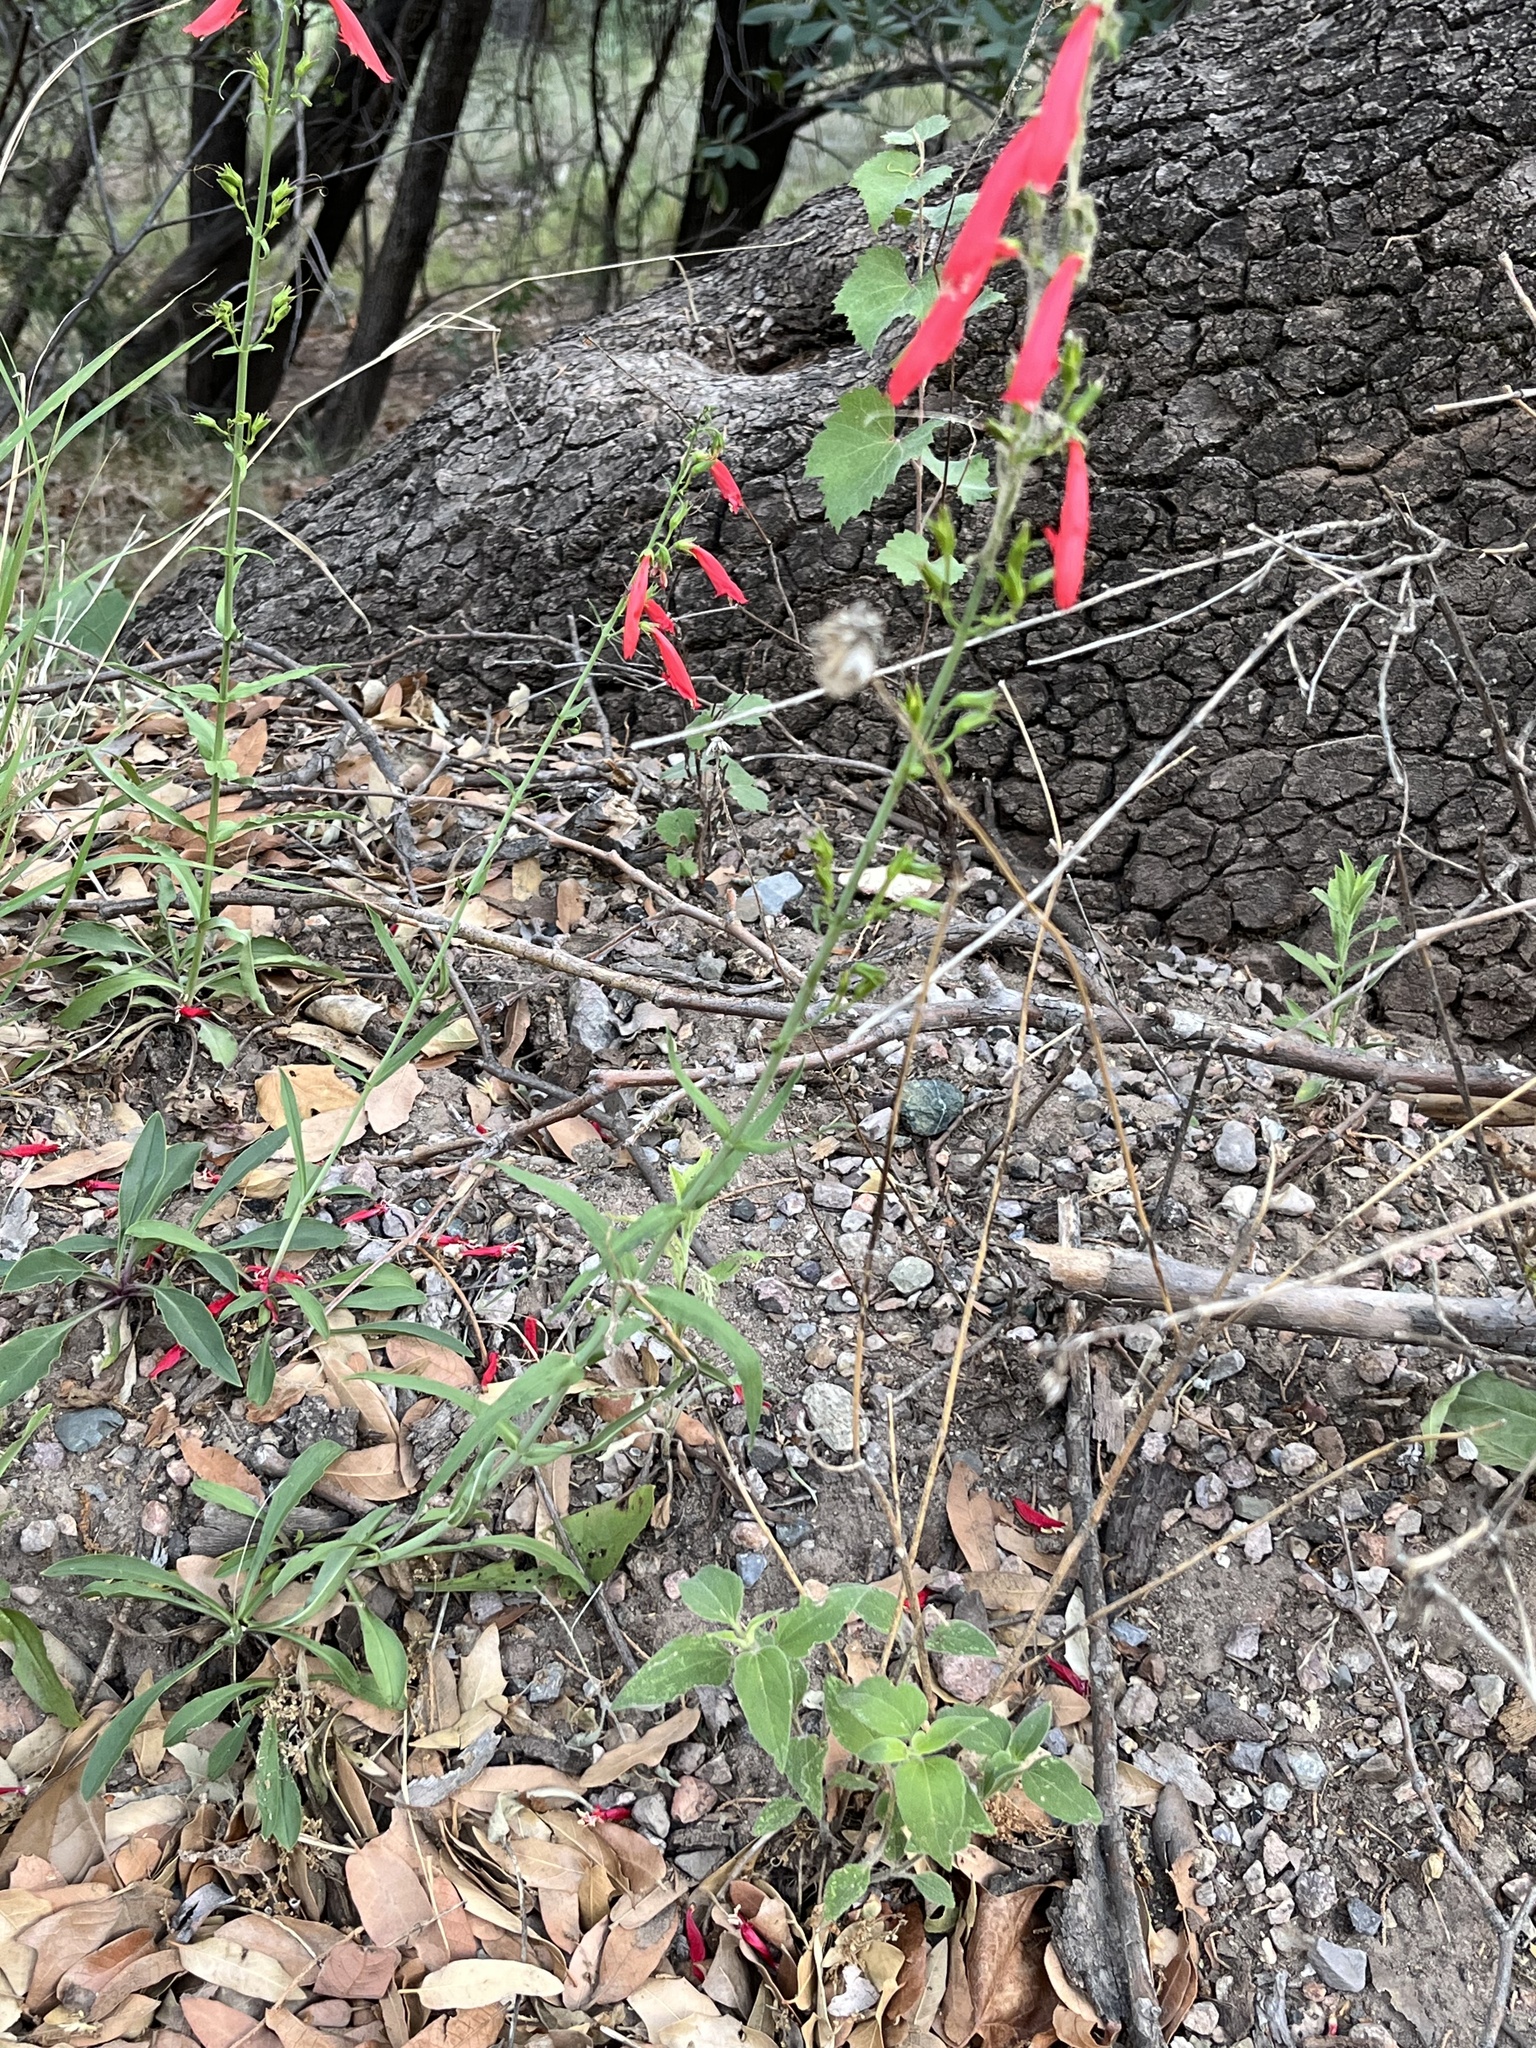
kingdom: Plantae
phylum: Tracheophyta
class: Magnoliopsida
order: Lamiales
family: Plantaginaceae
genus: Penstemon
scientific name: Penstemon barbatus
